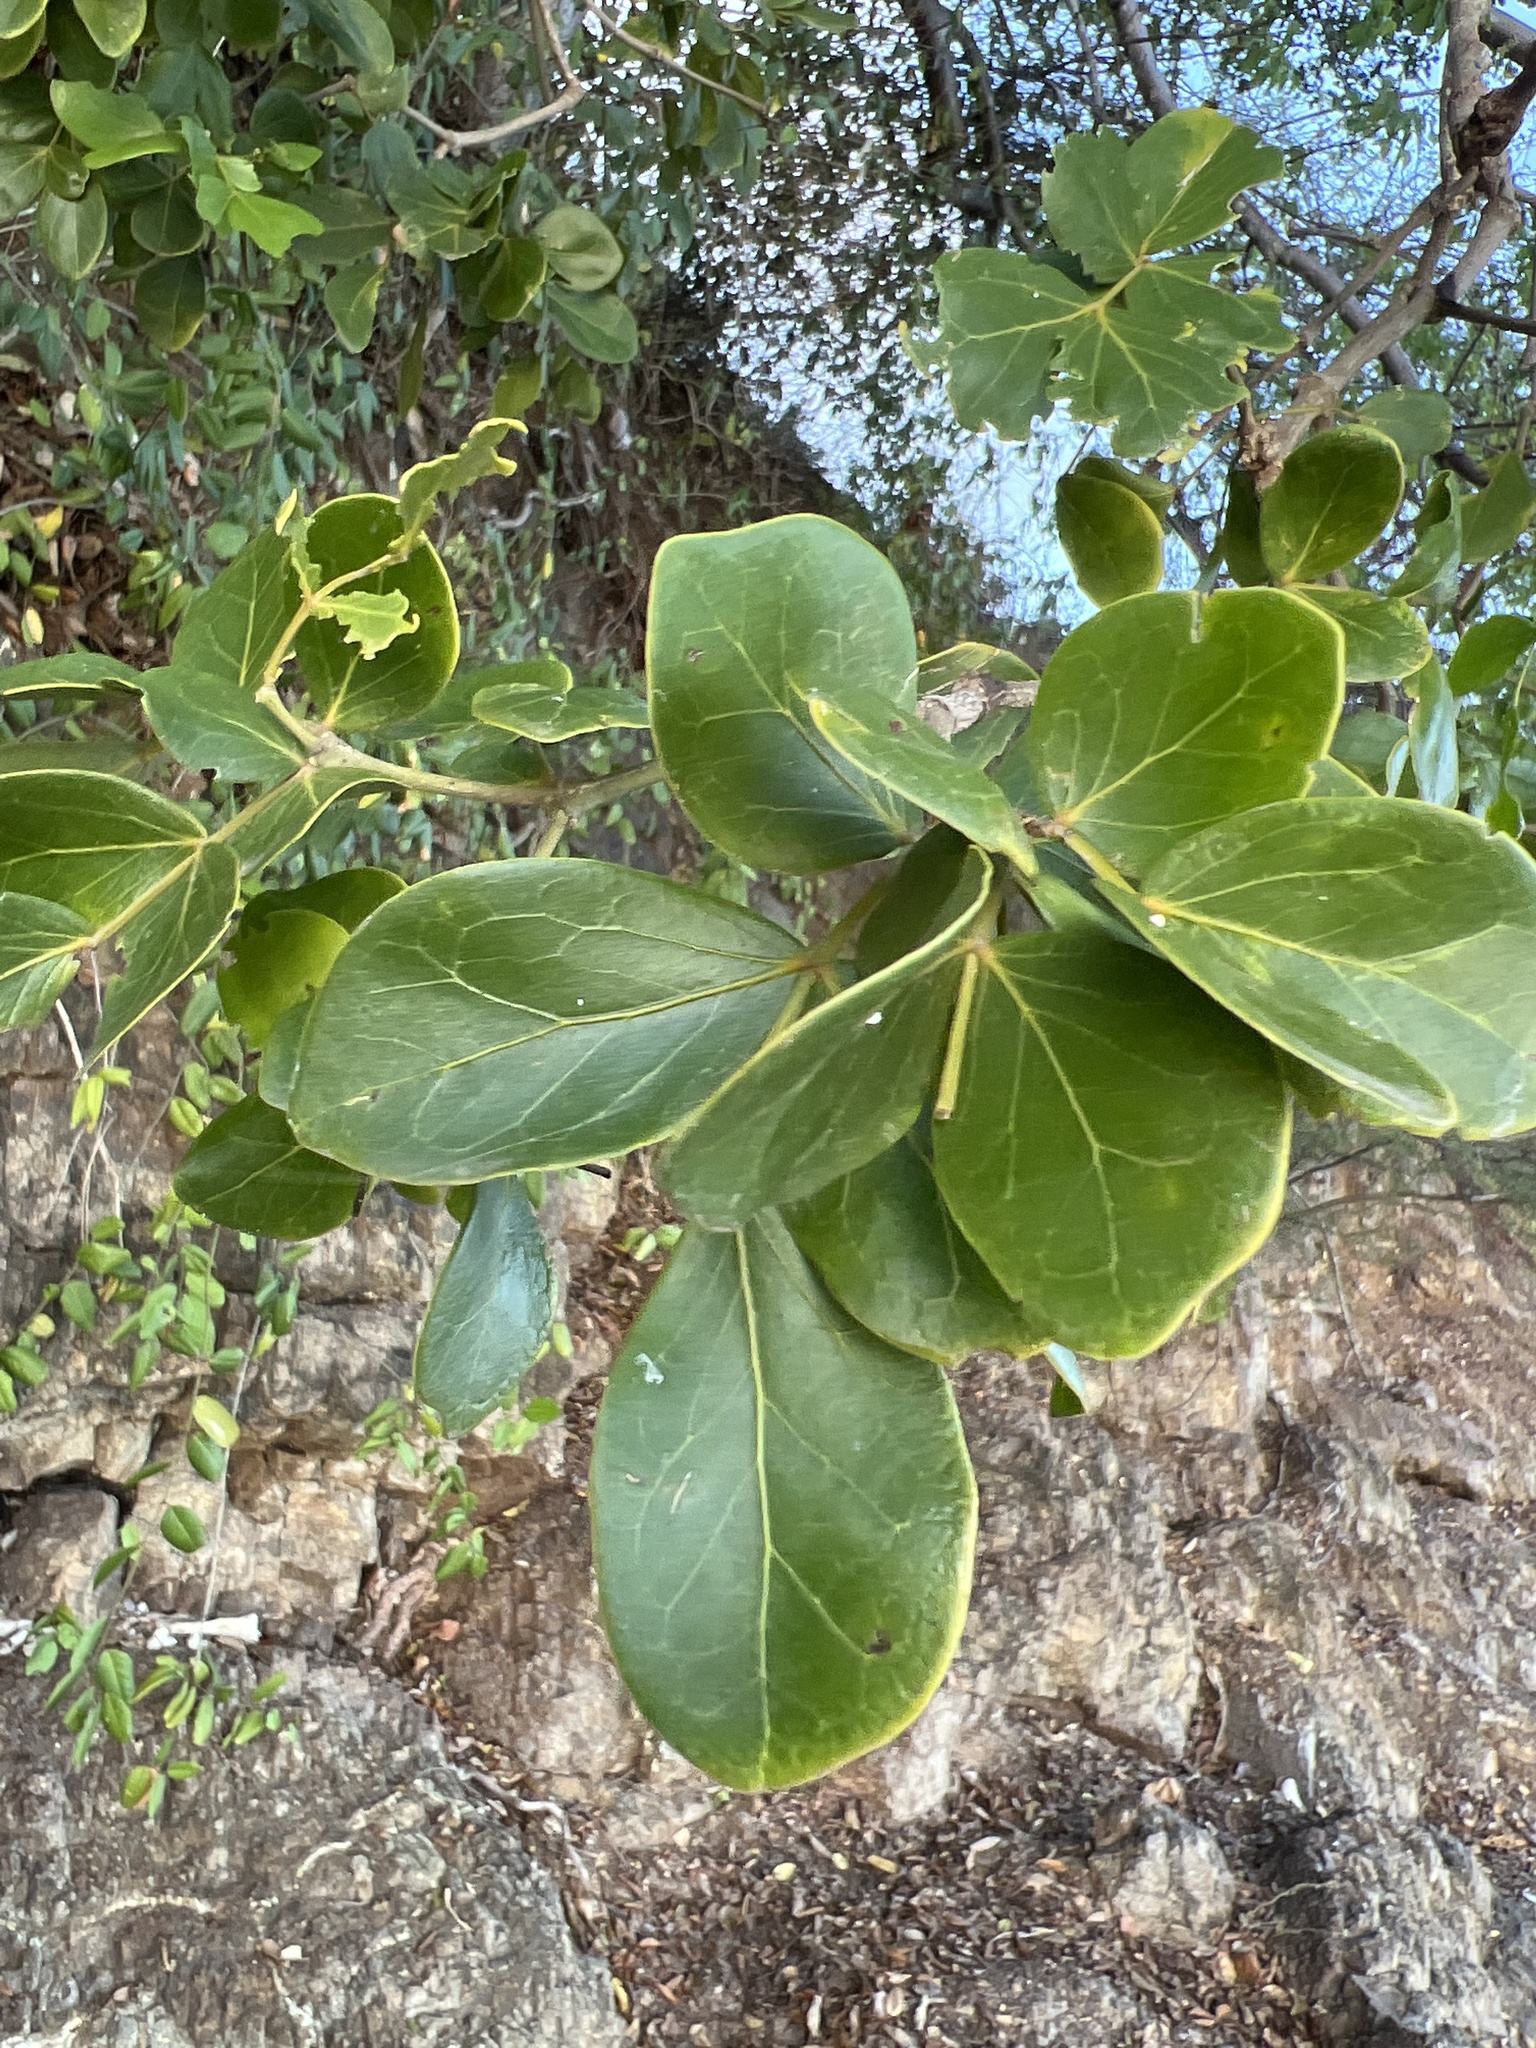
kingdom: Plantae
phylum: Tracheophyta
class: Magnoliopsida
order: Zygophyllales
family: Zygophyllaceae
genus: Guaiacum
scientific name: Guaiacum officinale
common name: Lignum vitae
